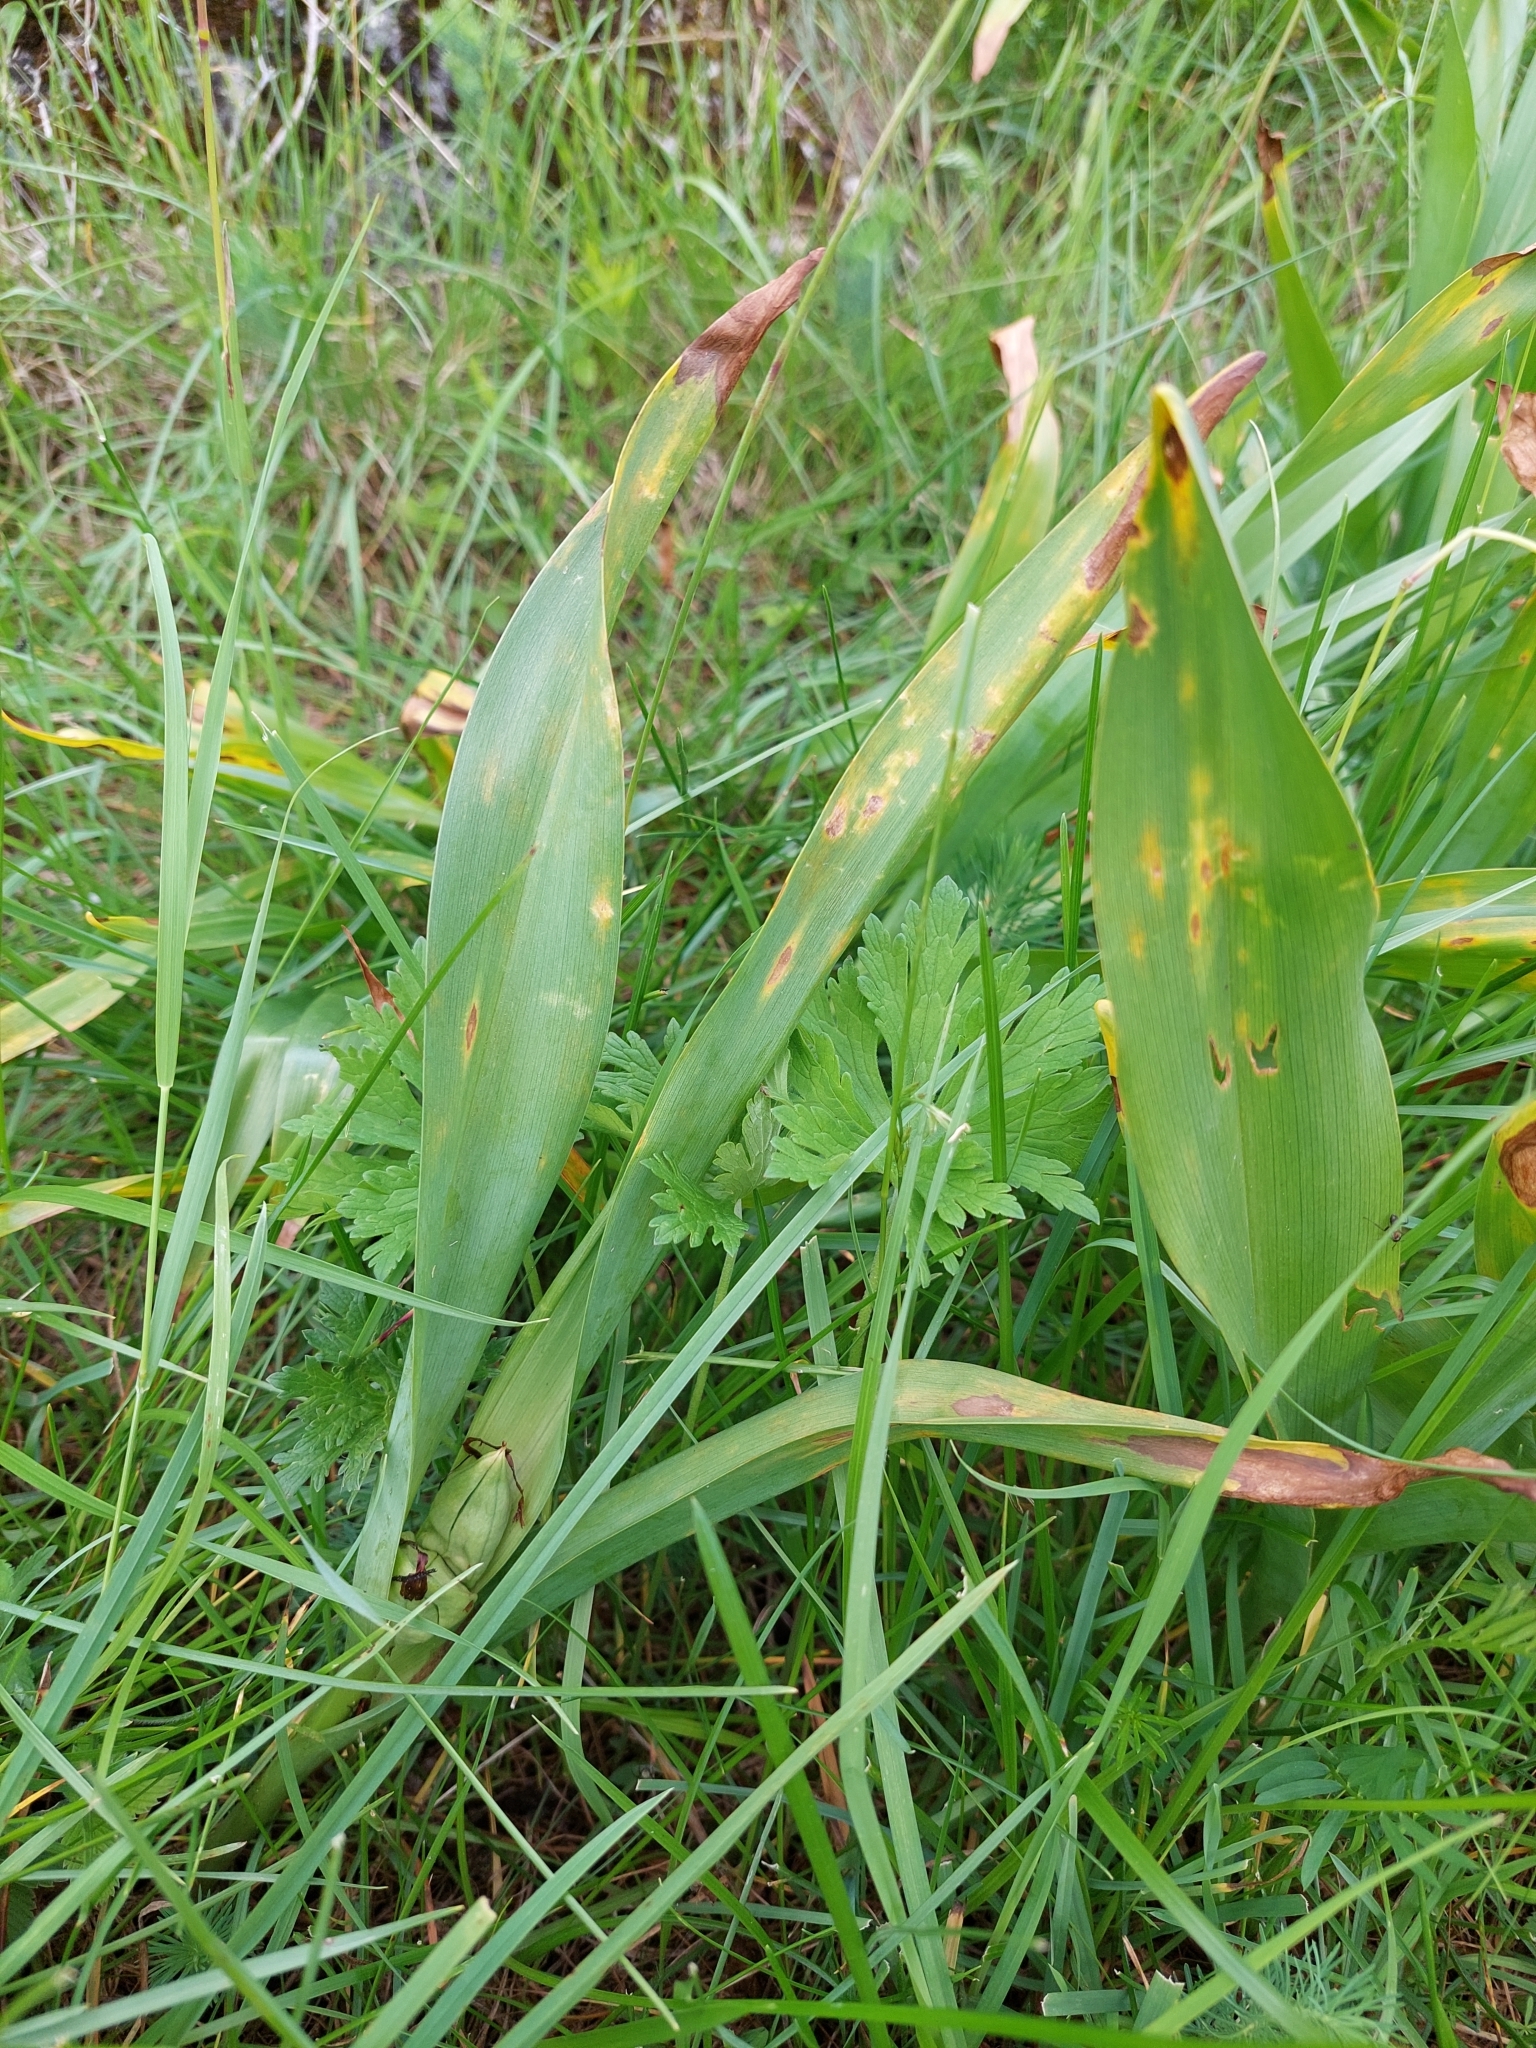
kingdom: Plantae
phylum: Tracheophyta
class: Liliopsida
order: Liliales
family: Colchicaceae
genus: Colchicum
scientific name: Colchicum autumnale
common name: Autumn crocus
